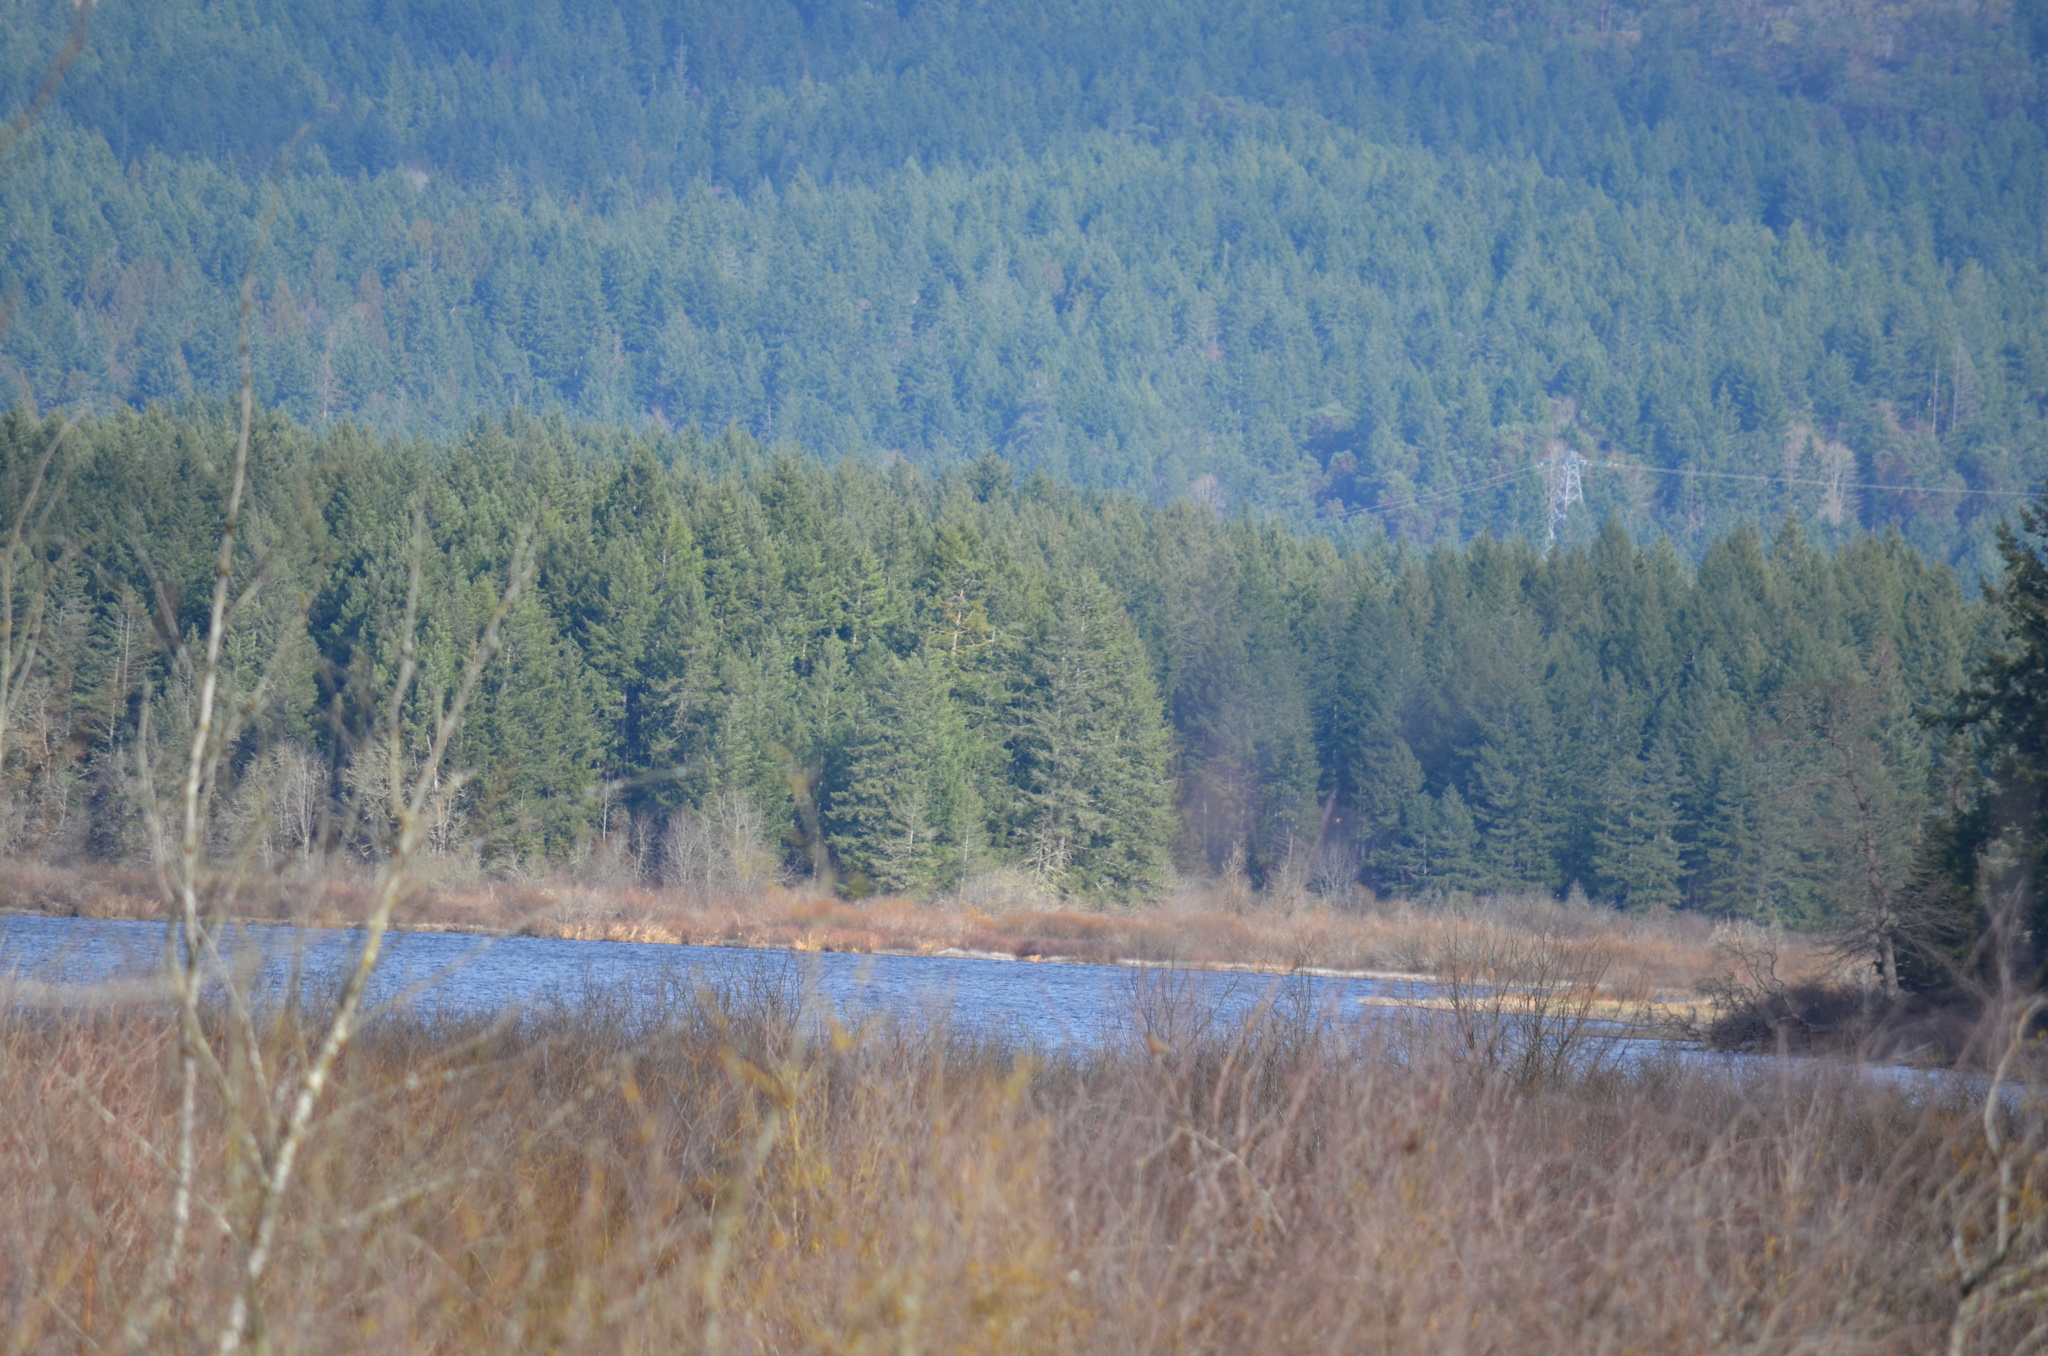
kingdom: Animalia
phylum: Chordata
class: Aves
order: Passeriformes
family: Turdidae
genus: Turdus
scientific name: Turdus migratorius
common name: American robin
